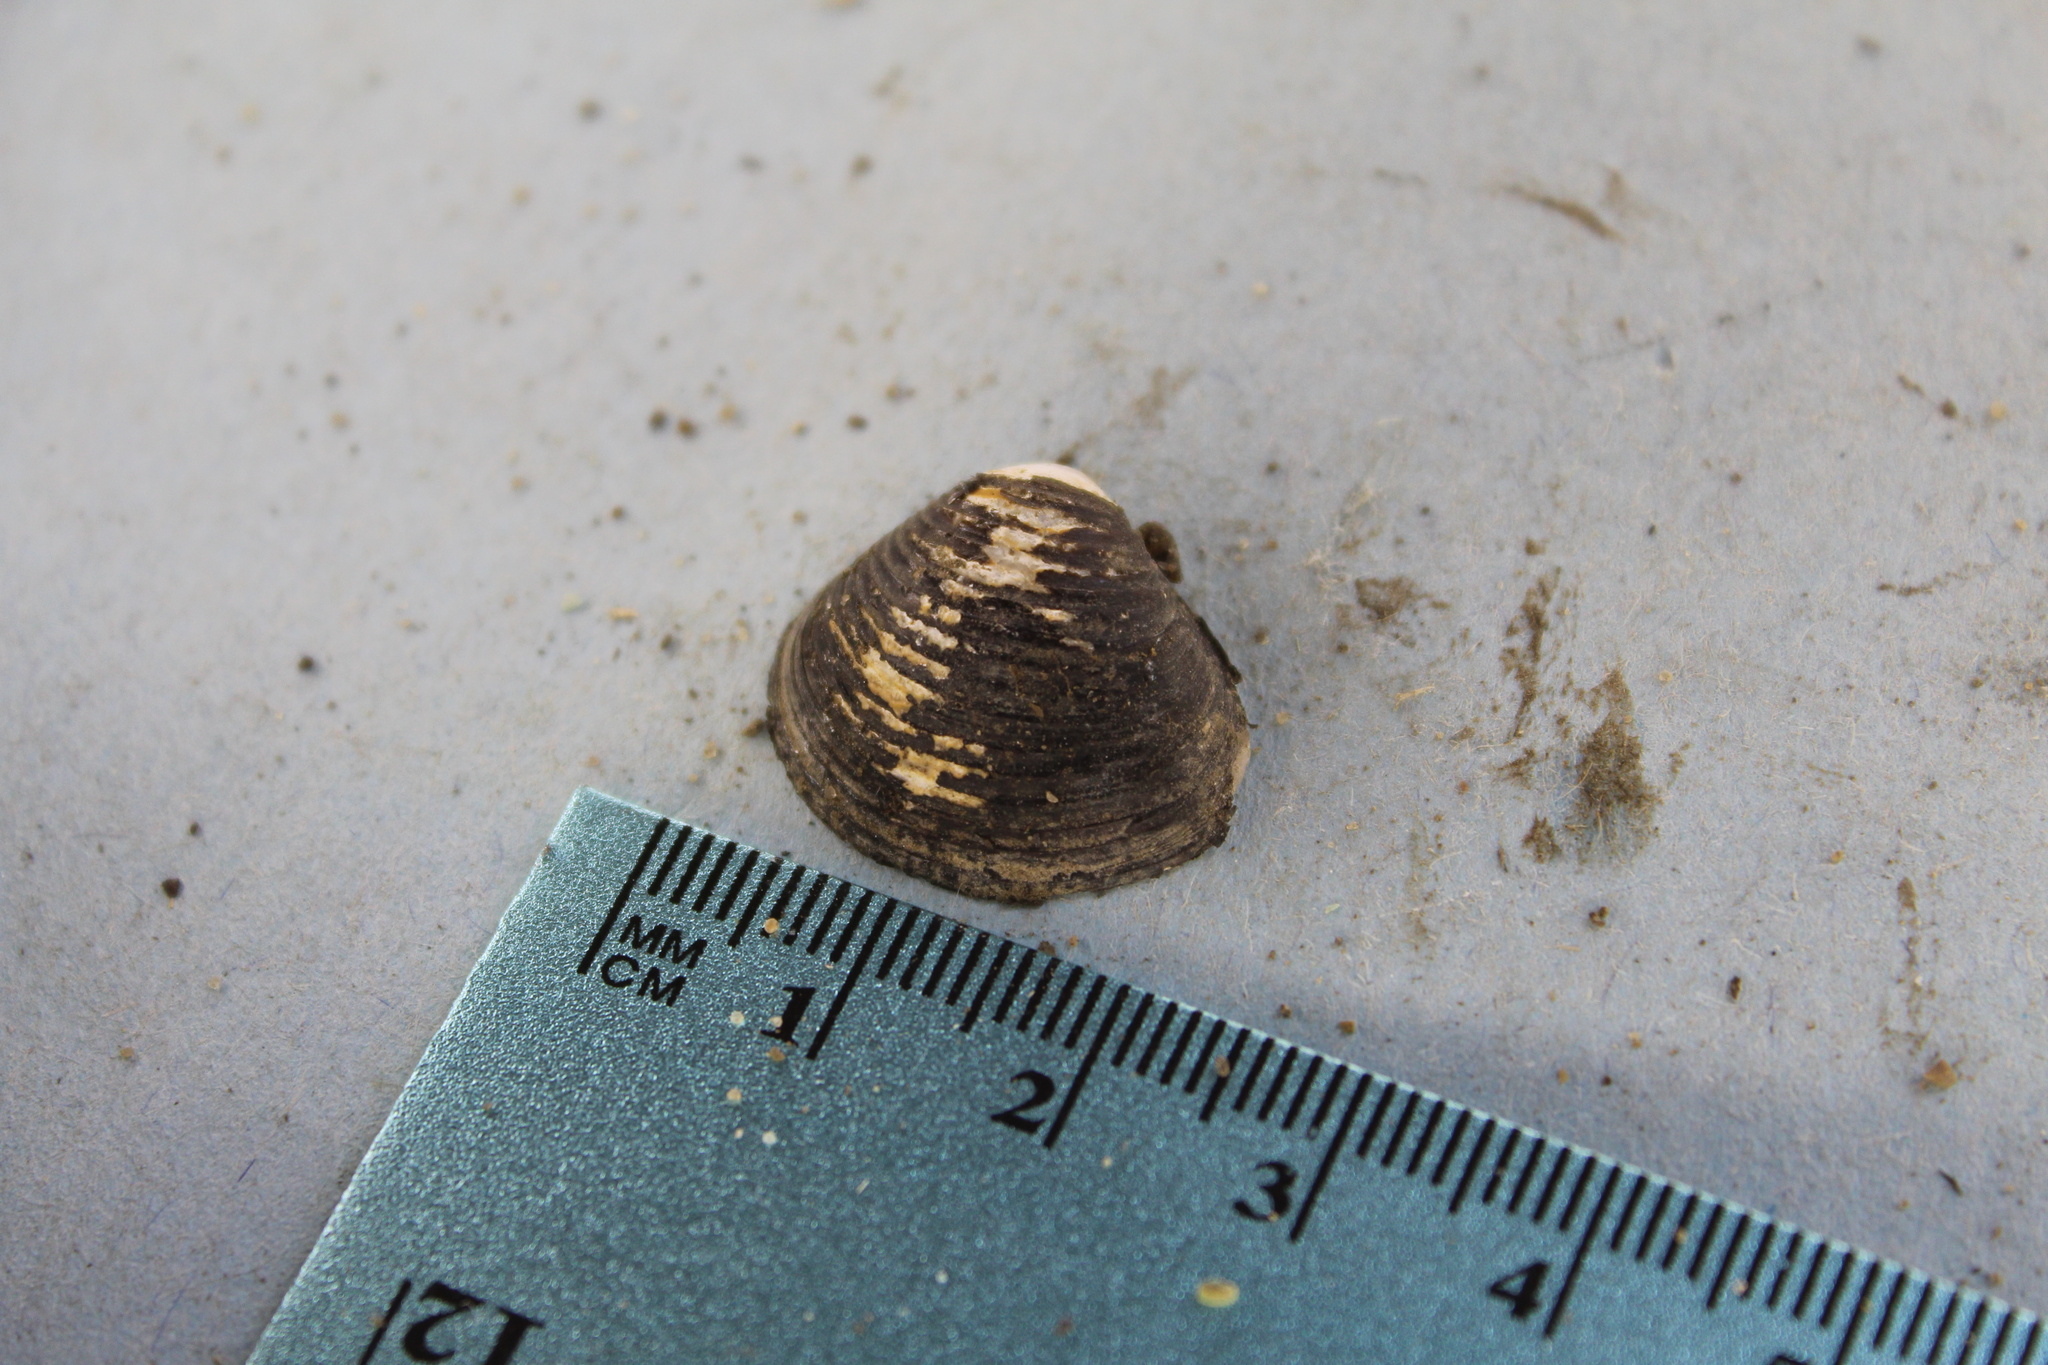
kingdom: Animalia
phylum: Mollusca
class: Bivalvia
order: Venerida
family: Cyrenidae
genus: Corbicula
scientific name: Corbicula fluminea
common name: Asian clam
